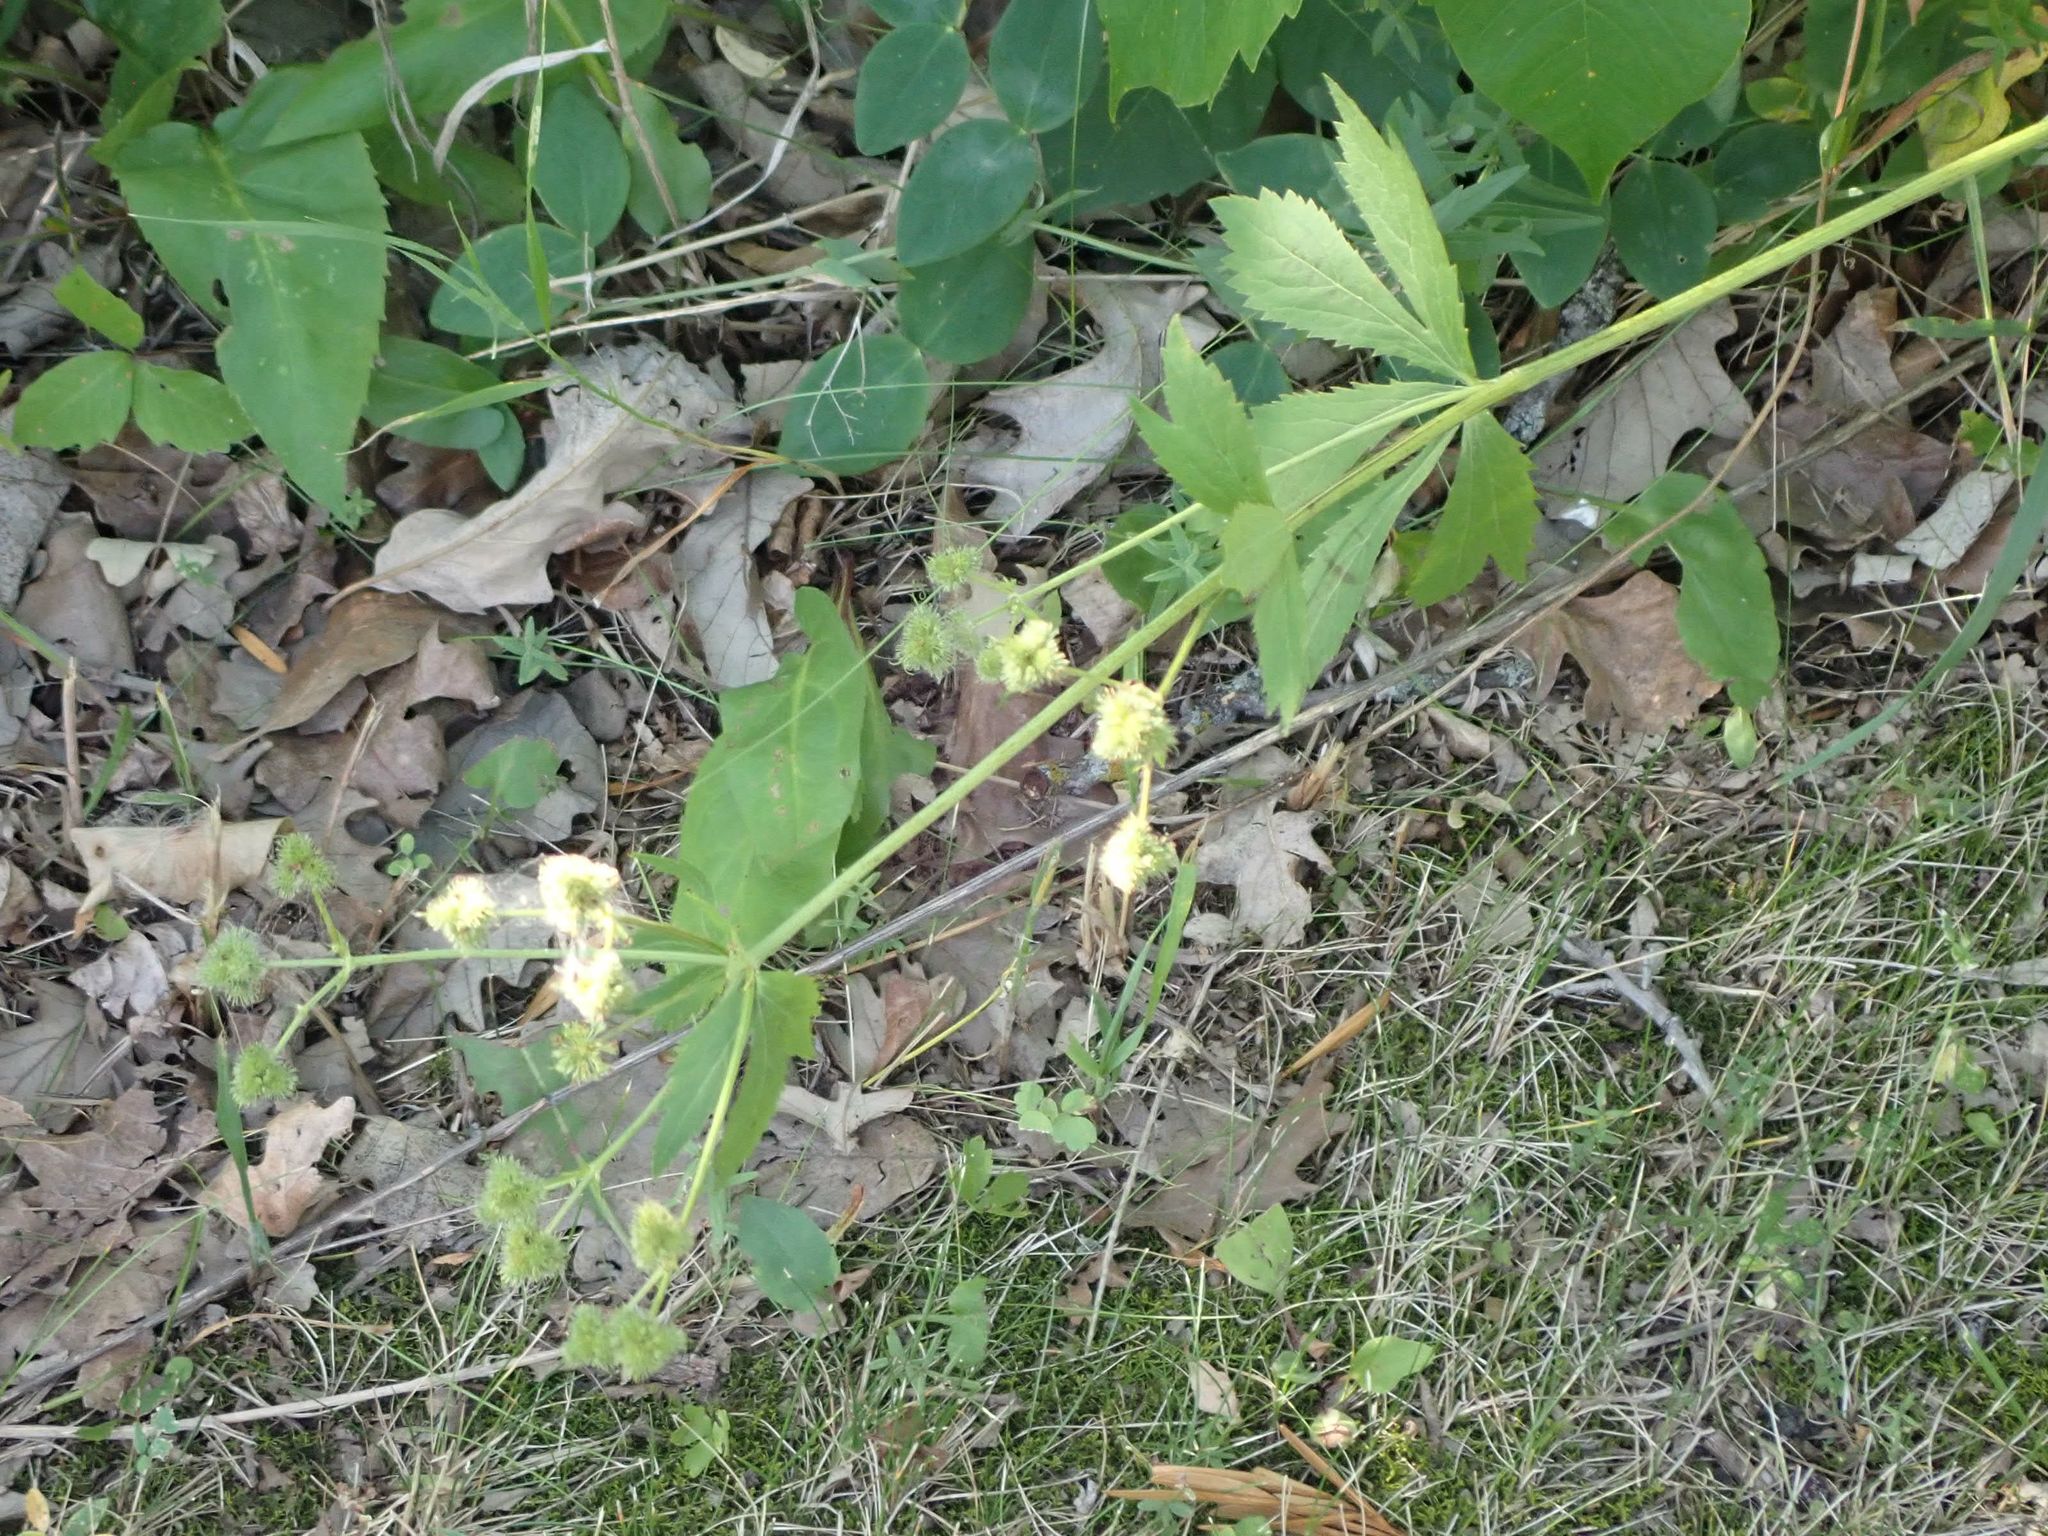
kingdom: Plantae
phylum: Tracheophyta
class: Magnoliopsida
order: Apiales
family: Apiaceae
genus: Sanicula
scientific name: Sanicula marilandica
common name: Black snakeroot
